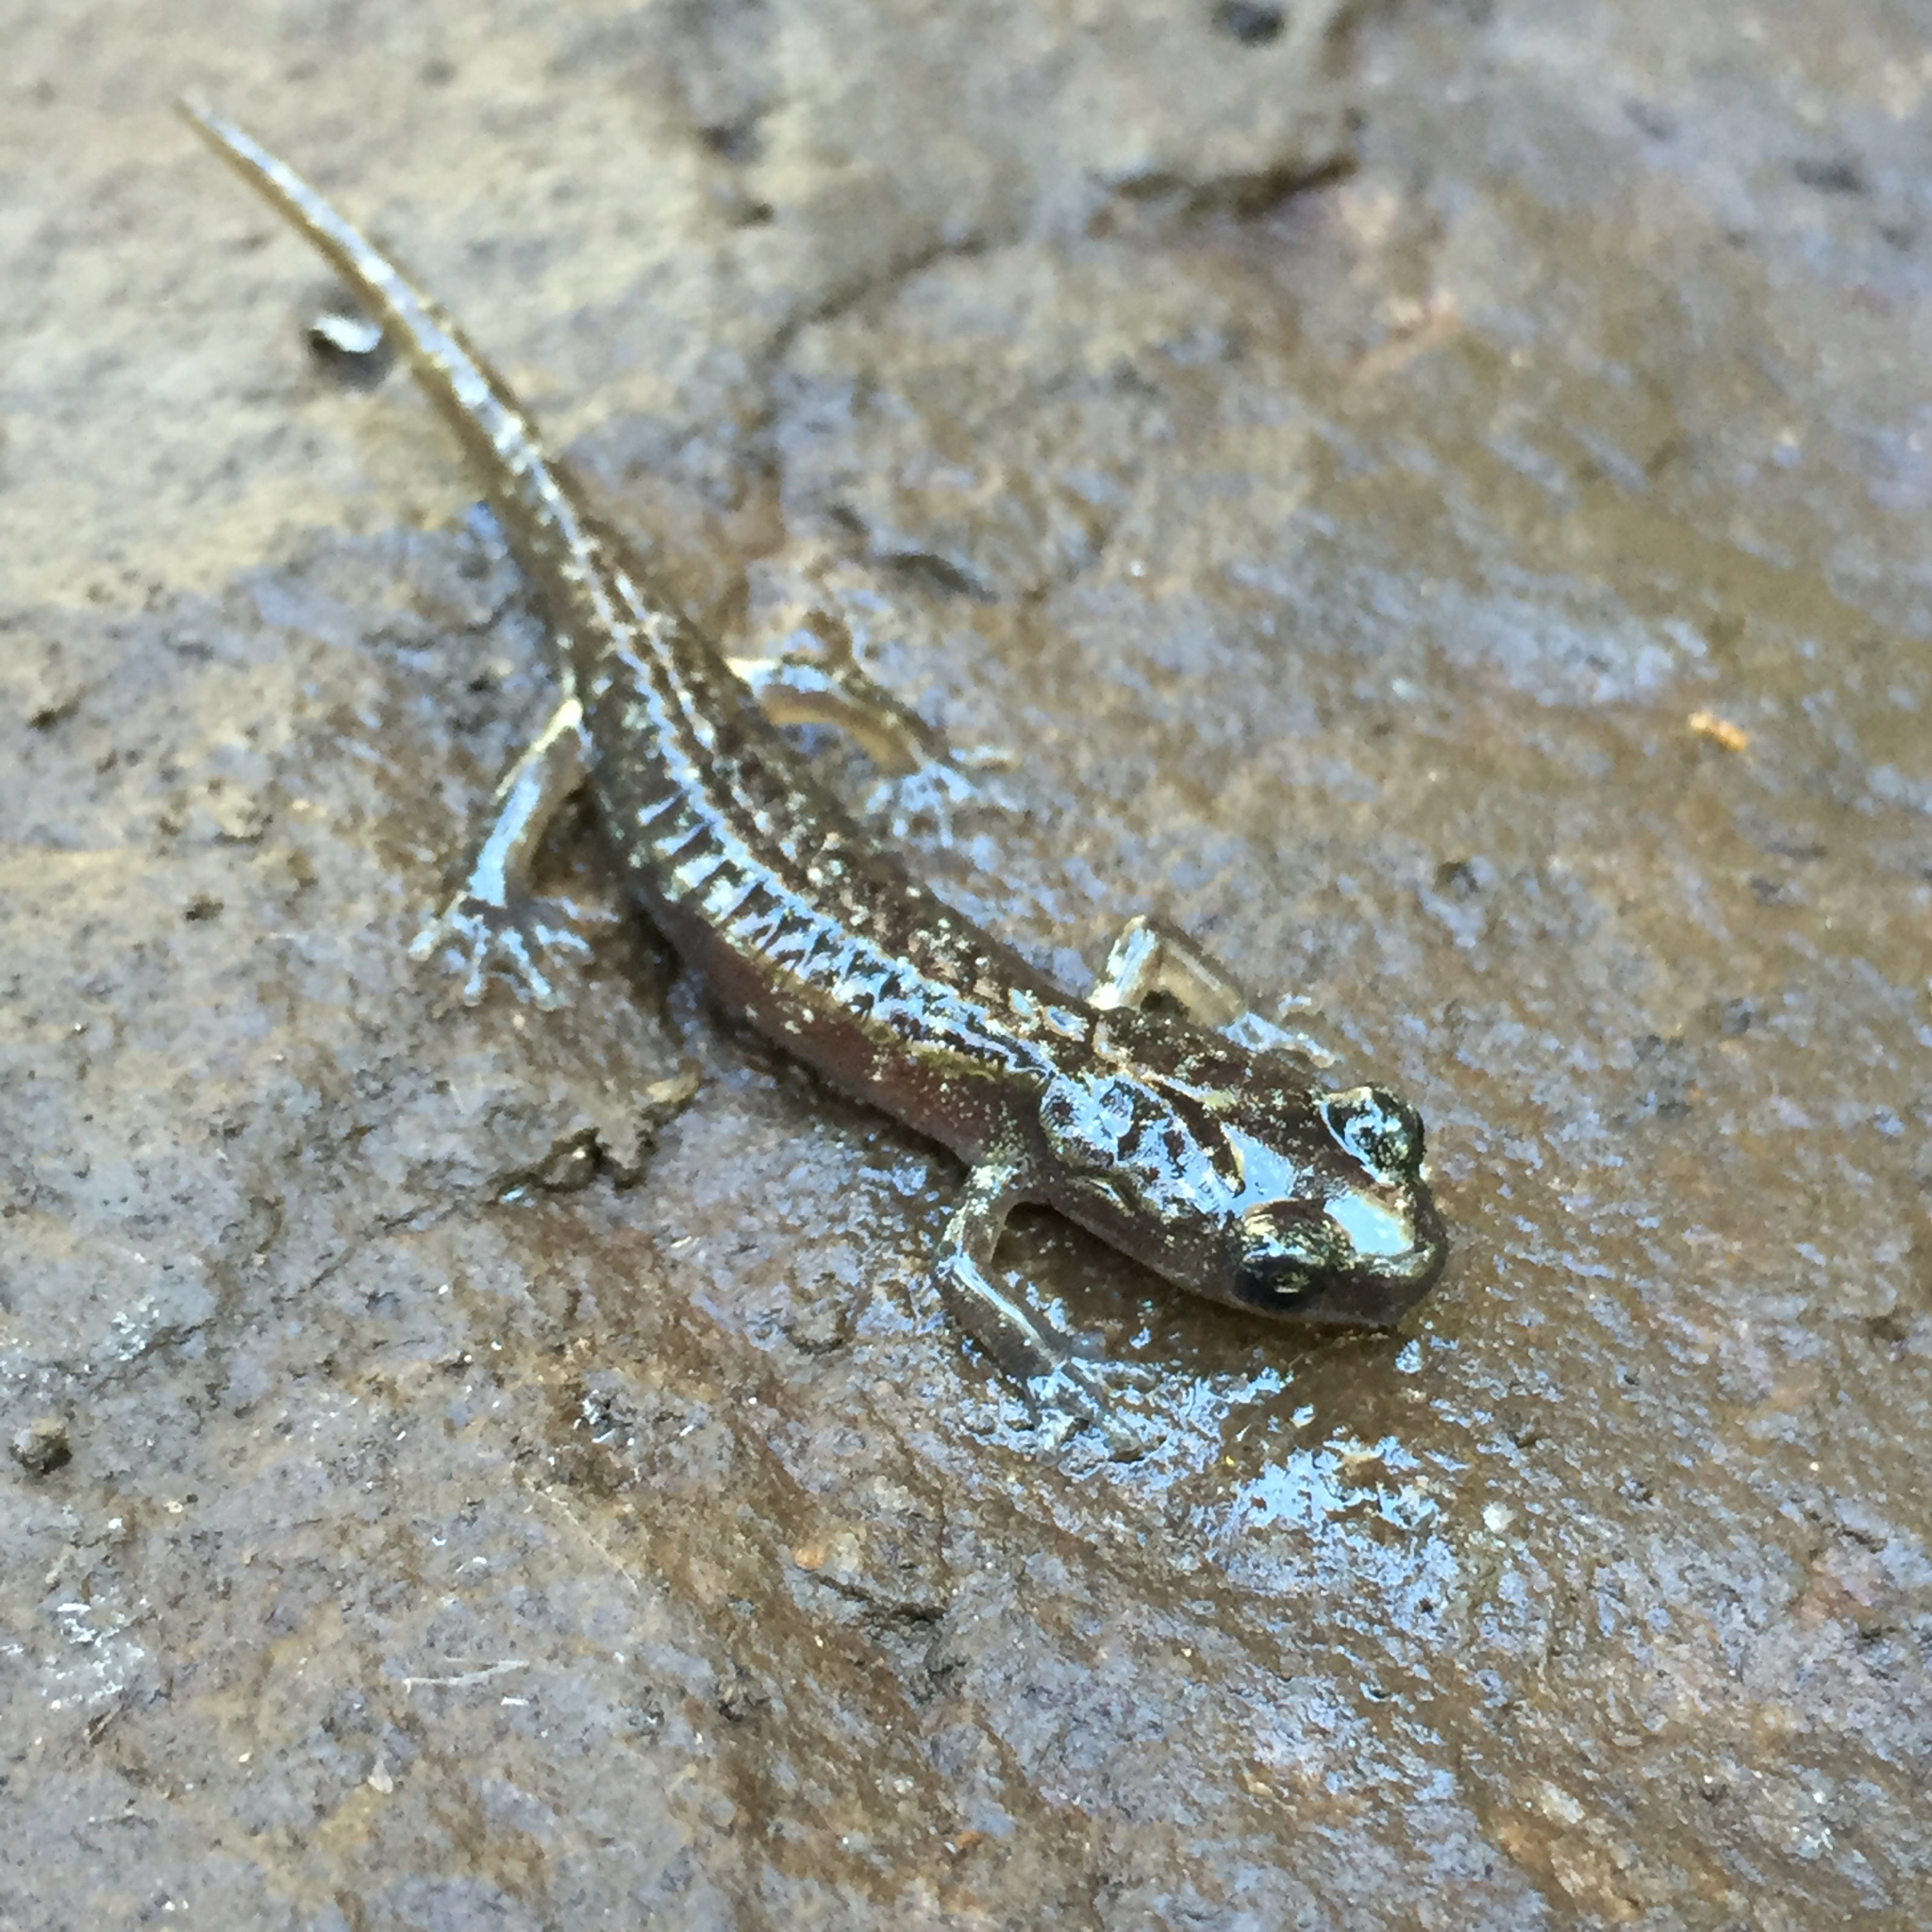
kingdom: Animalia
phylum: Chordata
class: Amphibia
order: Caudata
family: Plethodontidae
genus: Aneides
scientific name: Aneides lugubris
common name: Arboreal salamander
